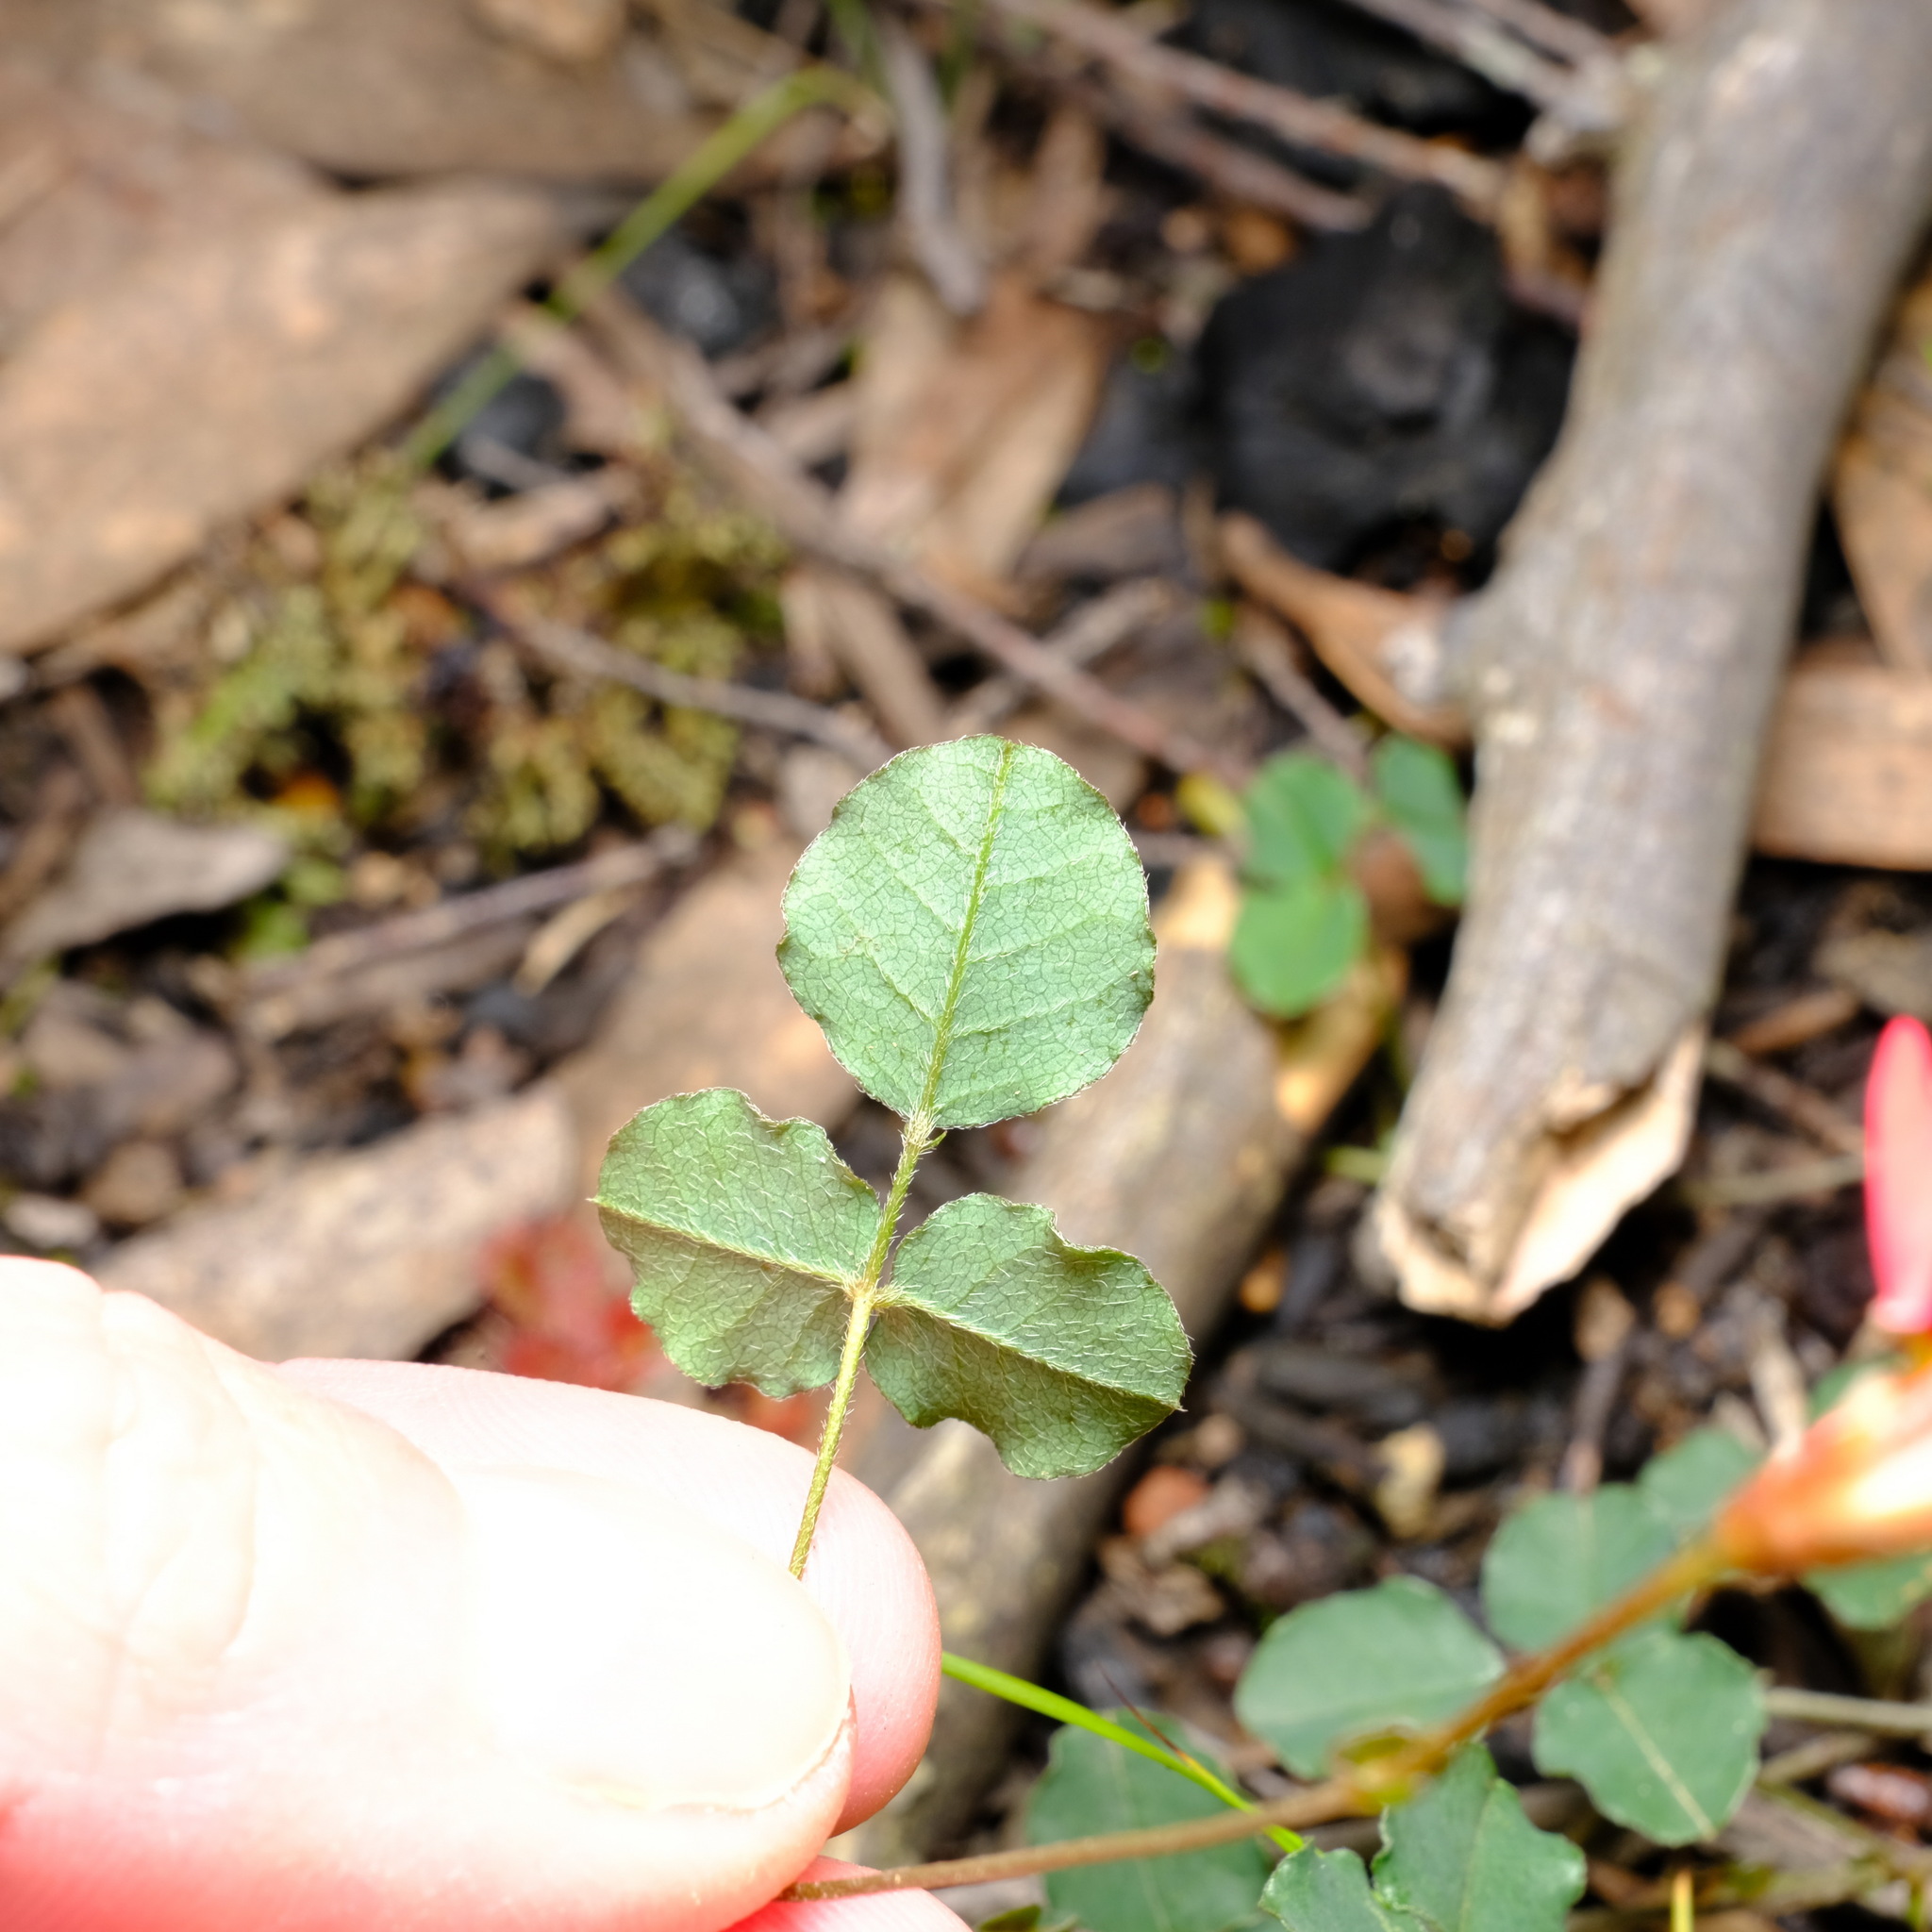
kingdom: Plantae
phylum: Tracheophyta
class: Magnoliopsida
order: Fabales
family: Fabaceae
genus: Kennedia
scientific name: Kennedia prostrata
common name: Running-postman
